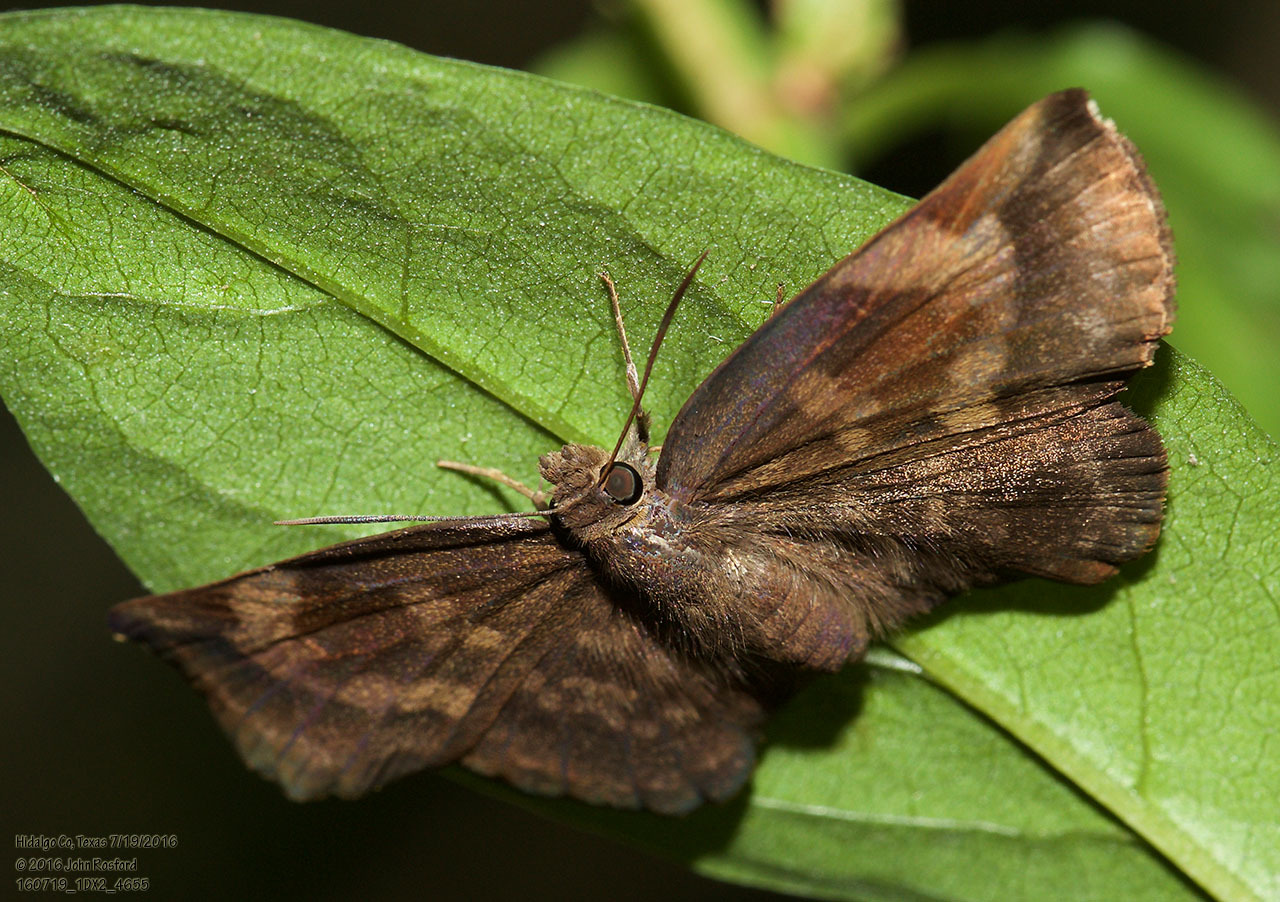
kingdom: Animalia
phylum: Arthropoda
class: Insecta
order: Lepidoptera
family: Hesperiidae
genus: Achlyodes
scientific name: Achlyodes thraso
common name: Sickle-winged skipper
